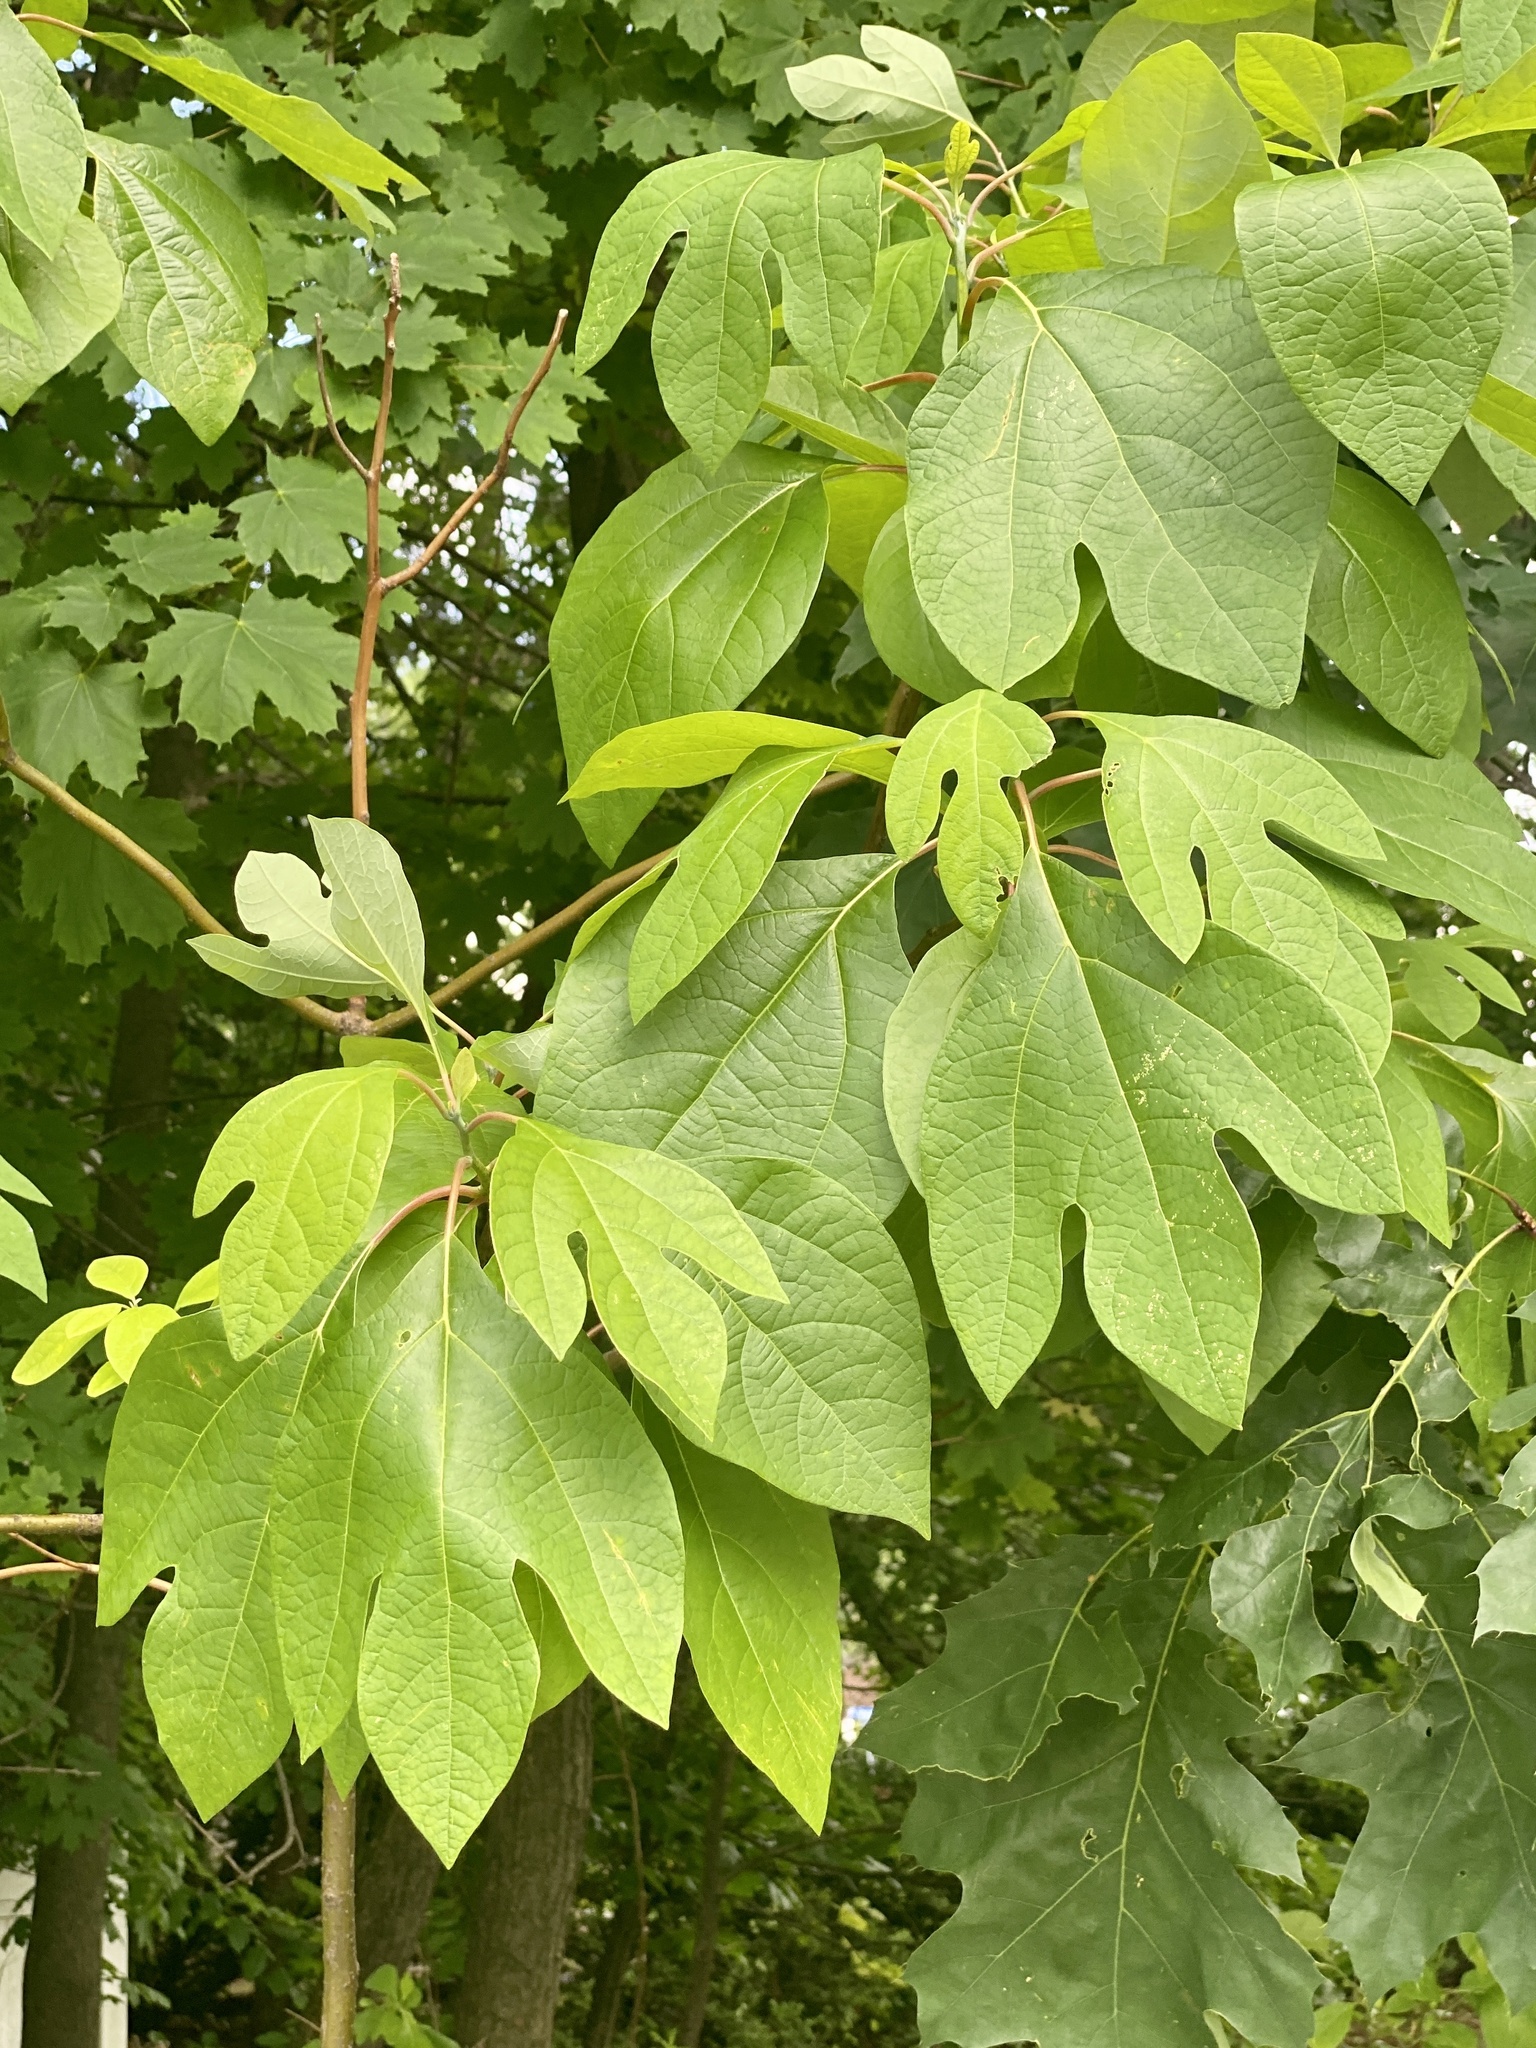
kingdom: Plantae
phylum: Tracheophyta
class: Magnoliopsida
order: Laurales
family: Lauraceae
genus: Sassafras
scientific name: Sassafras albidum
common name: Sassafras
